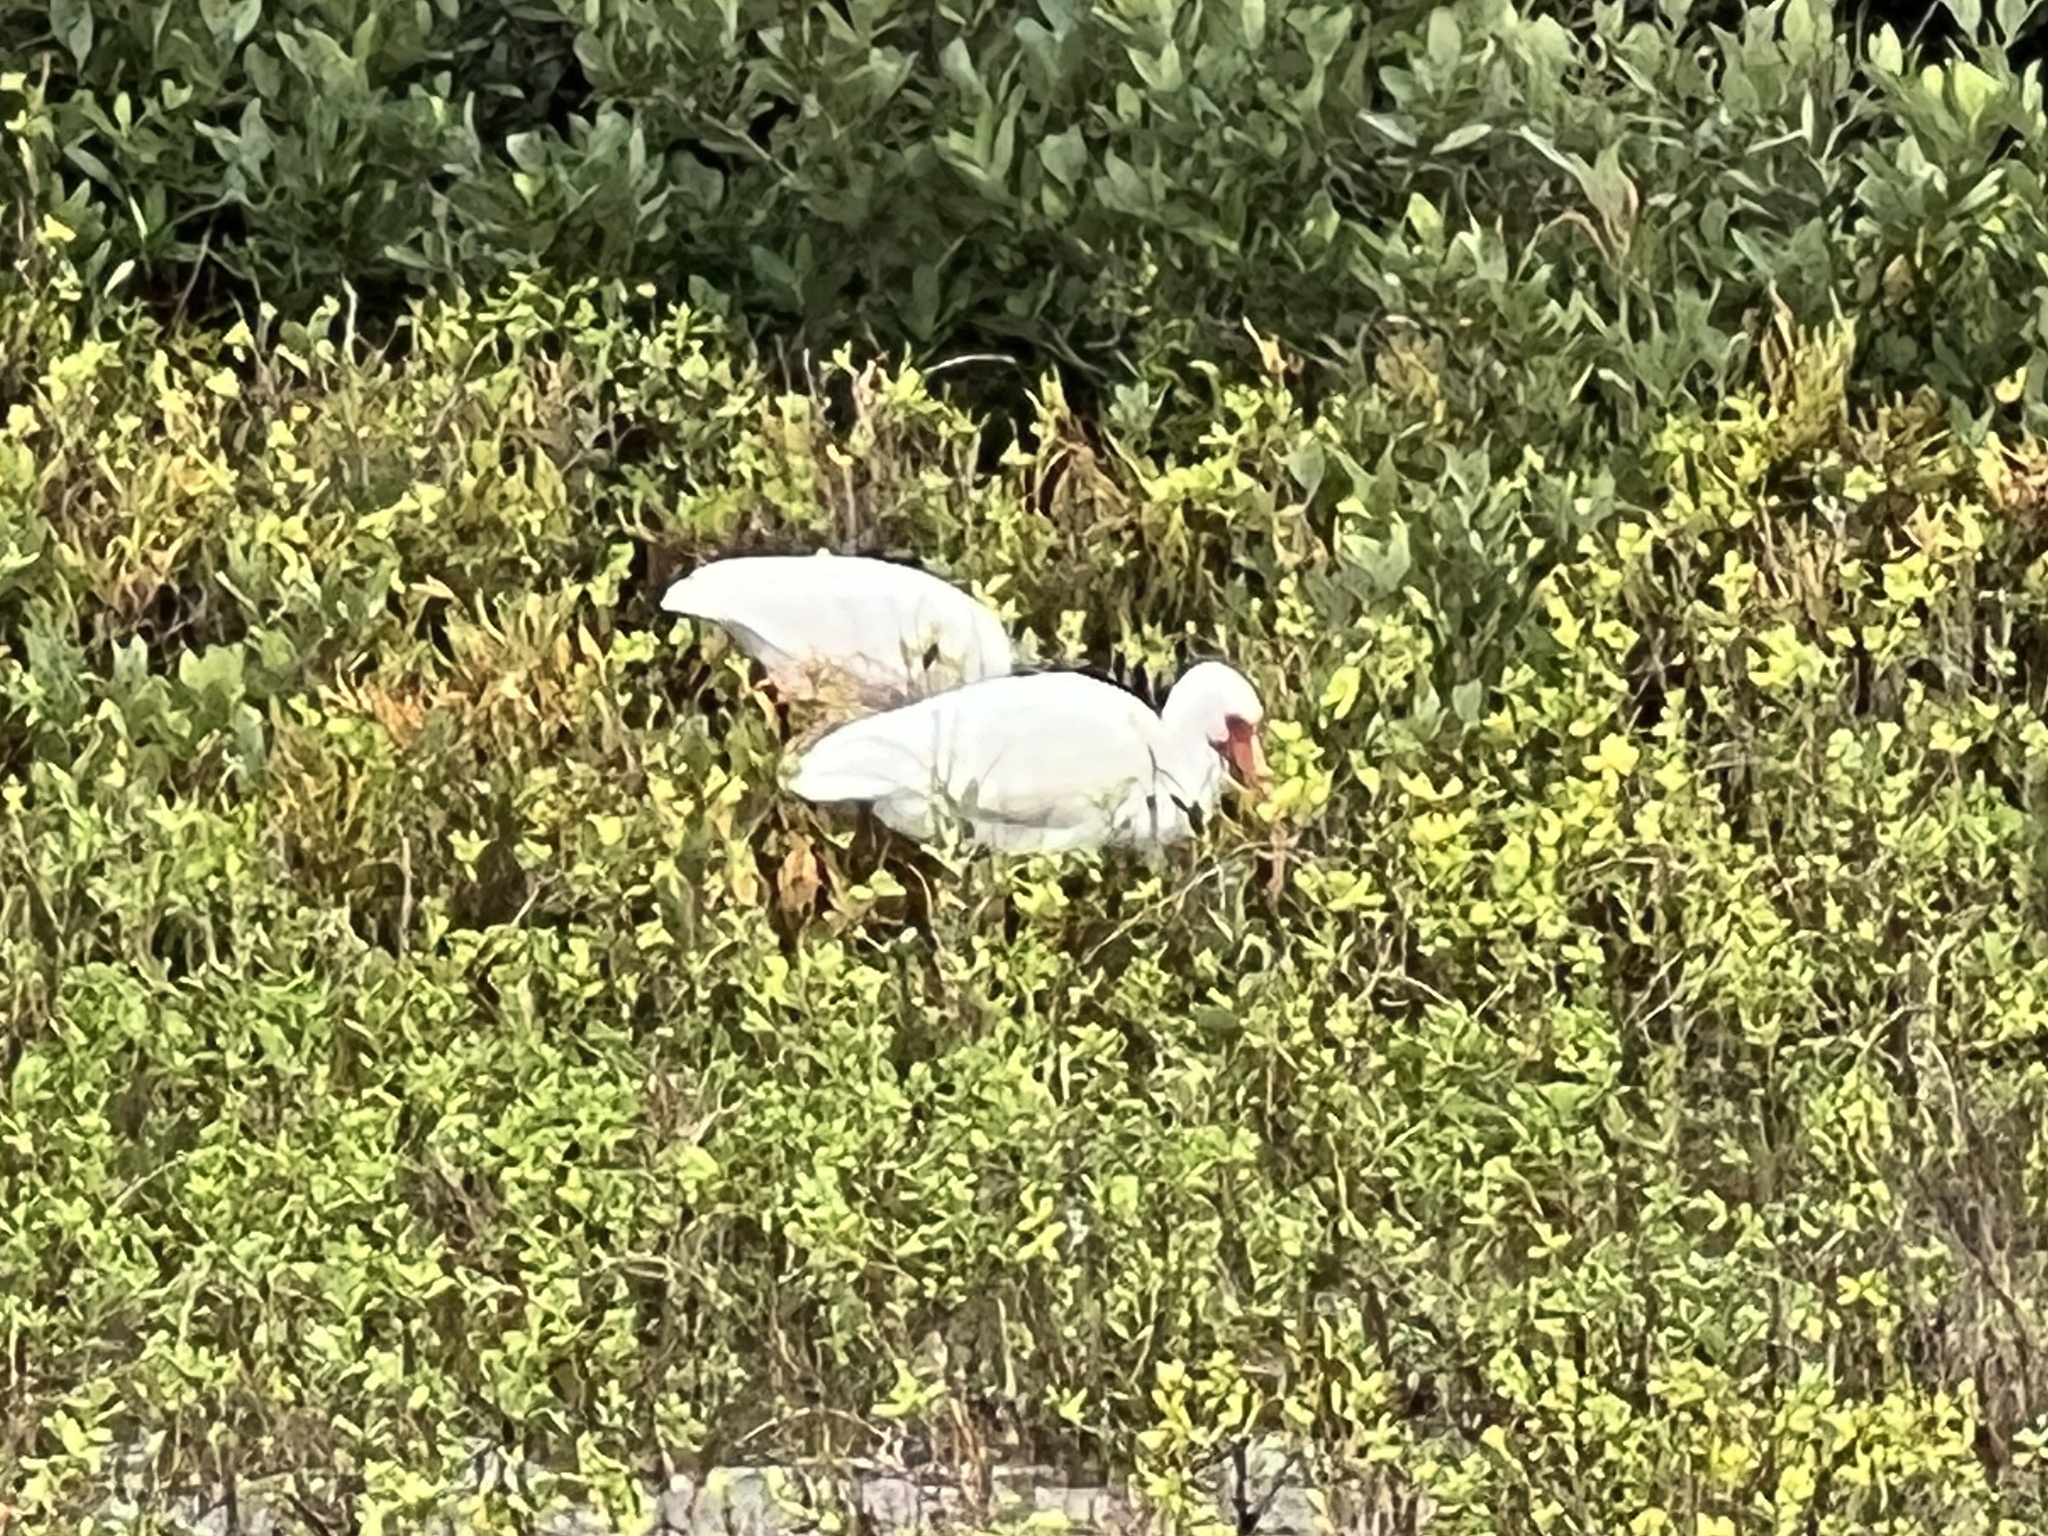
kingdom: Animalia
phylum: Chordata
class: Aves
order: Pelecaniformes
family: Threskiornithidae
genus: Eudocimus
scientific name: Eudocimus albus
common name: White ibis
